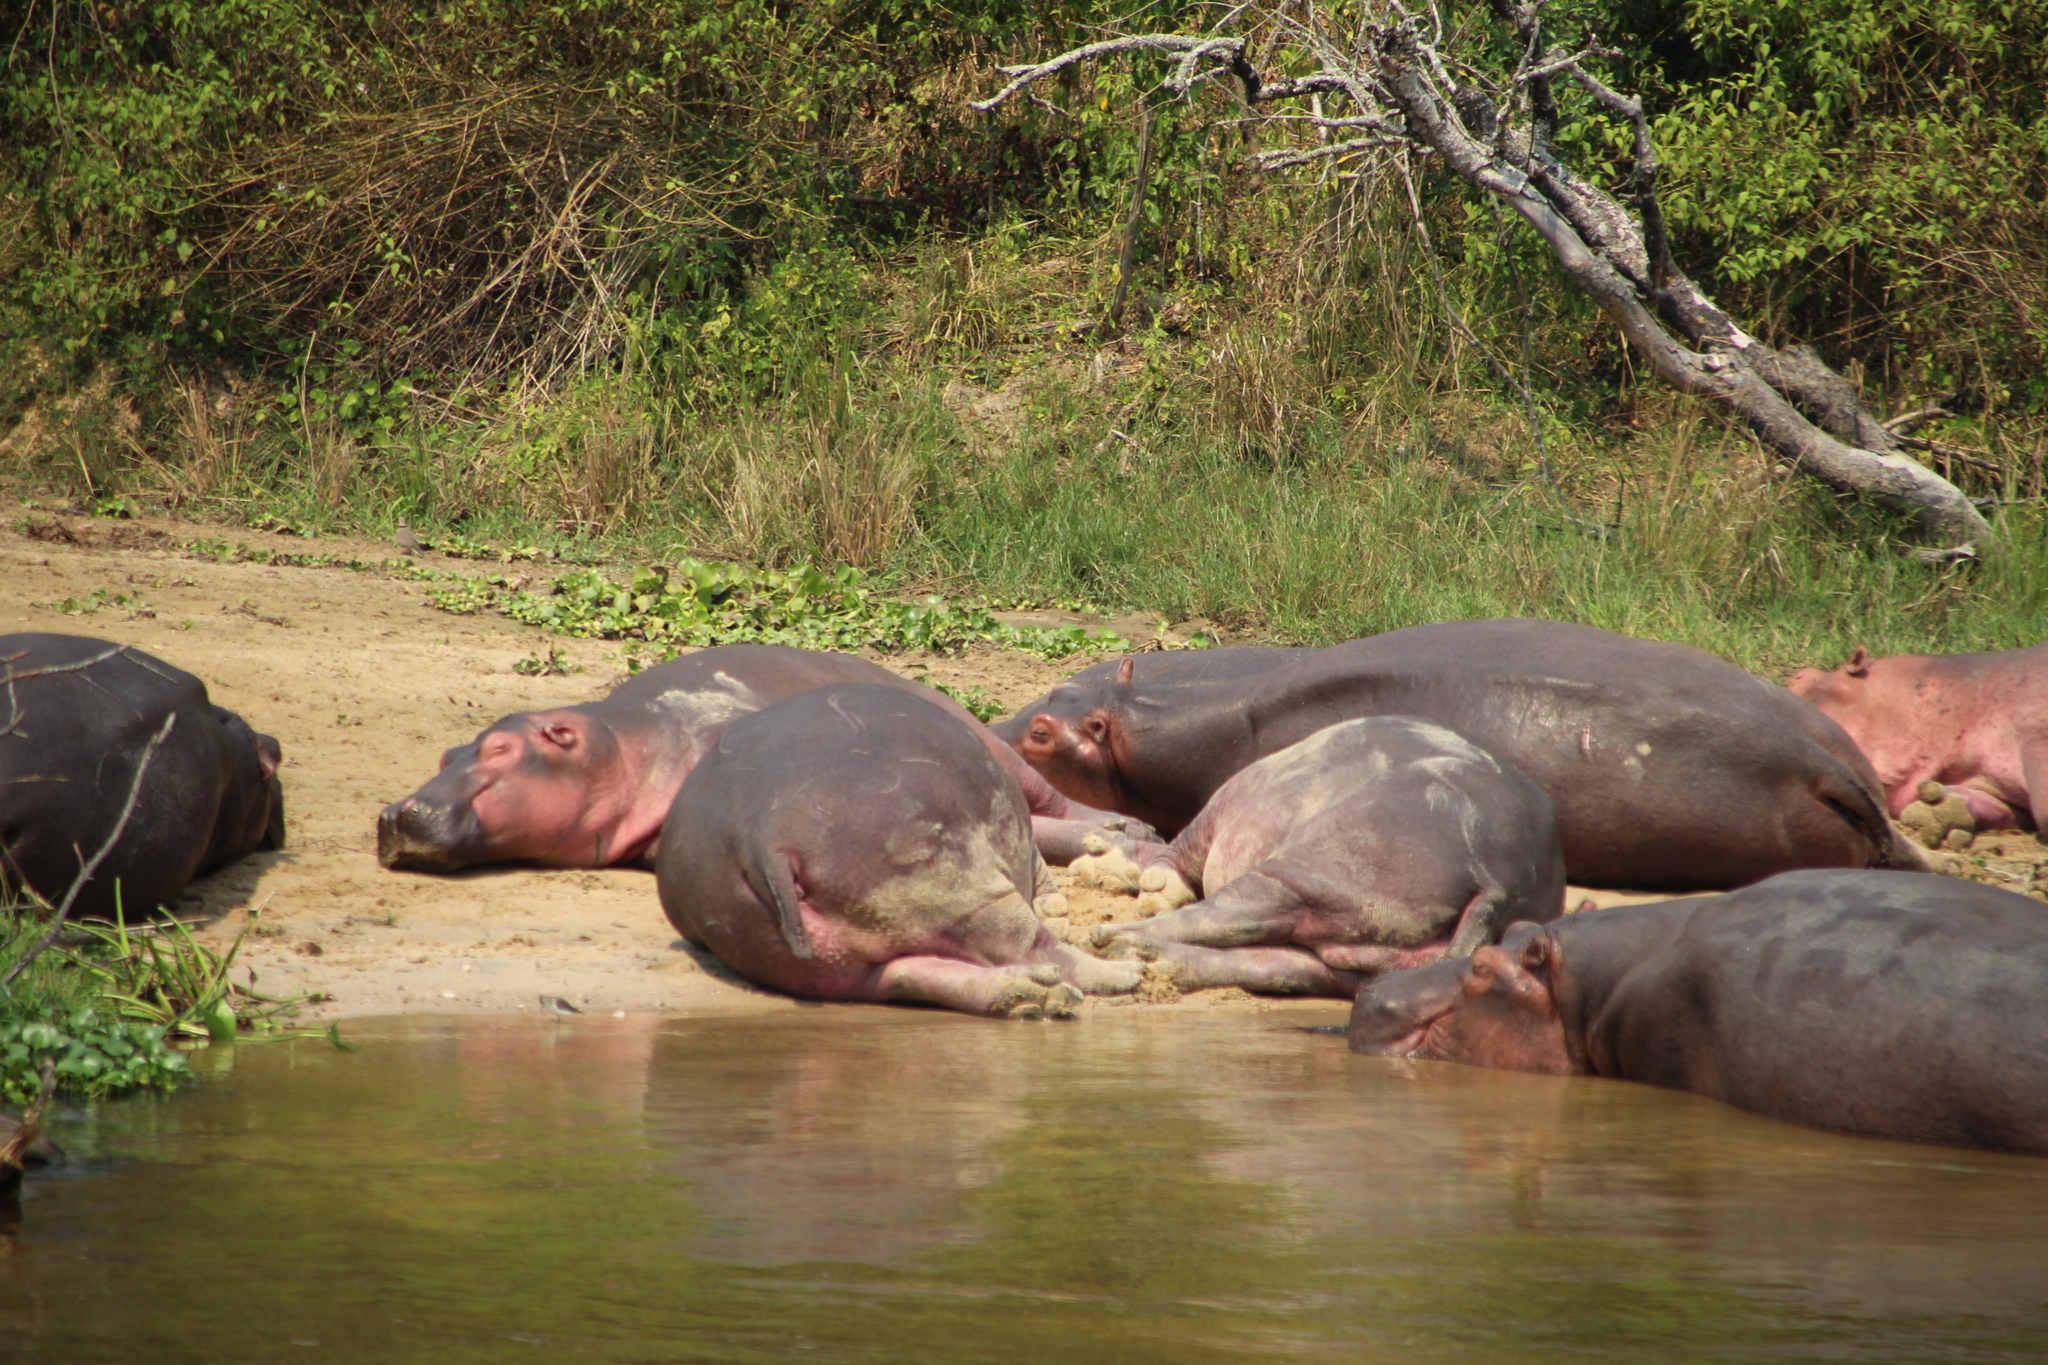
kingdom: Animalia
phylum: Chordata
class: Mammalia
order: Artiodactyla
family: Hippopotamidae
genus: Hippopotamus
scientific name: Hippopotamus amphibius
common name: Common hippopotamus
